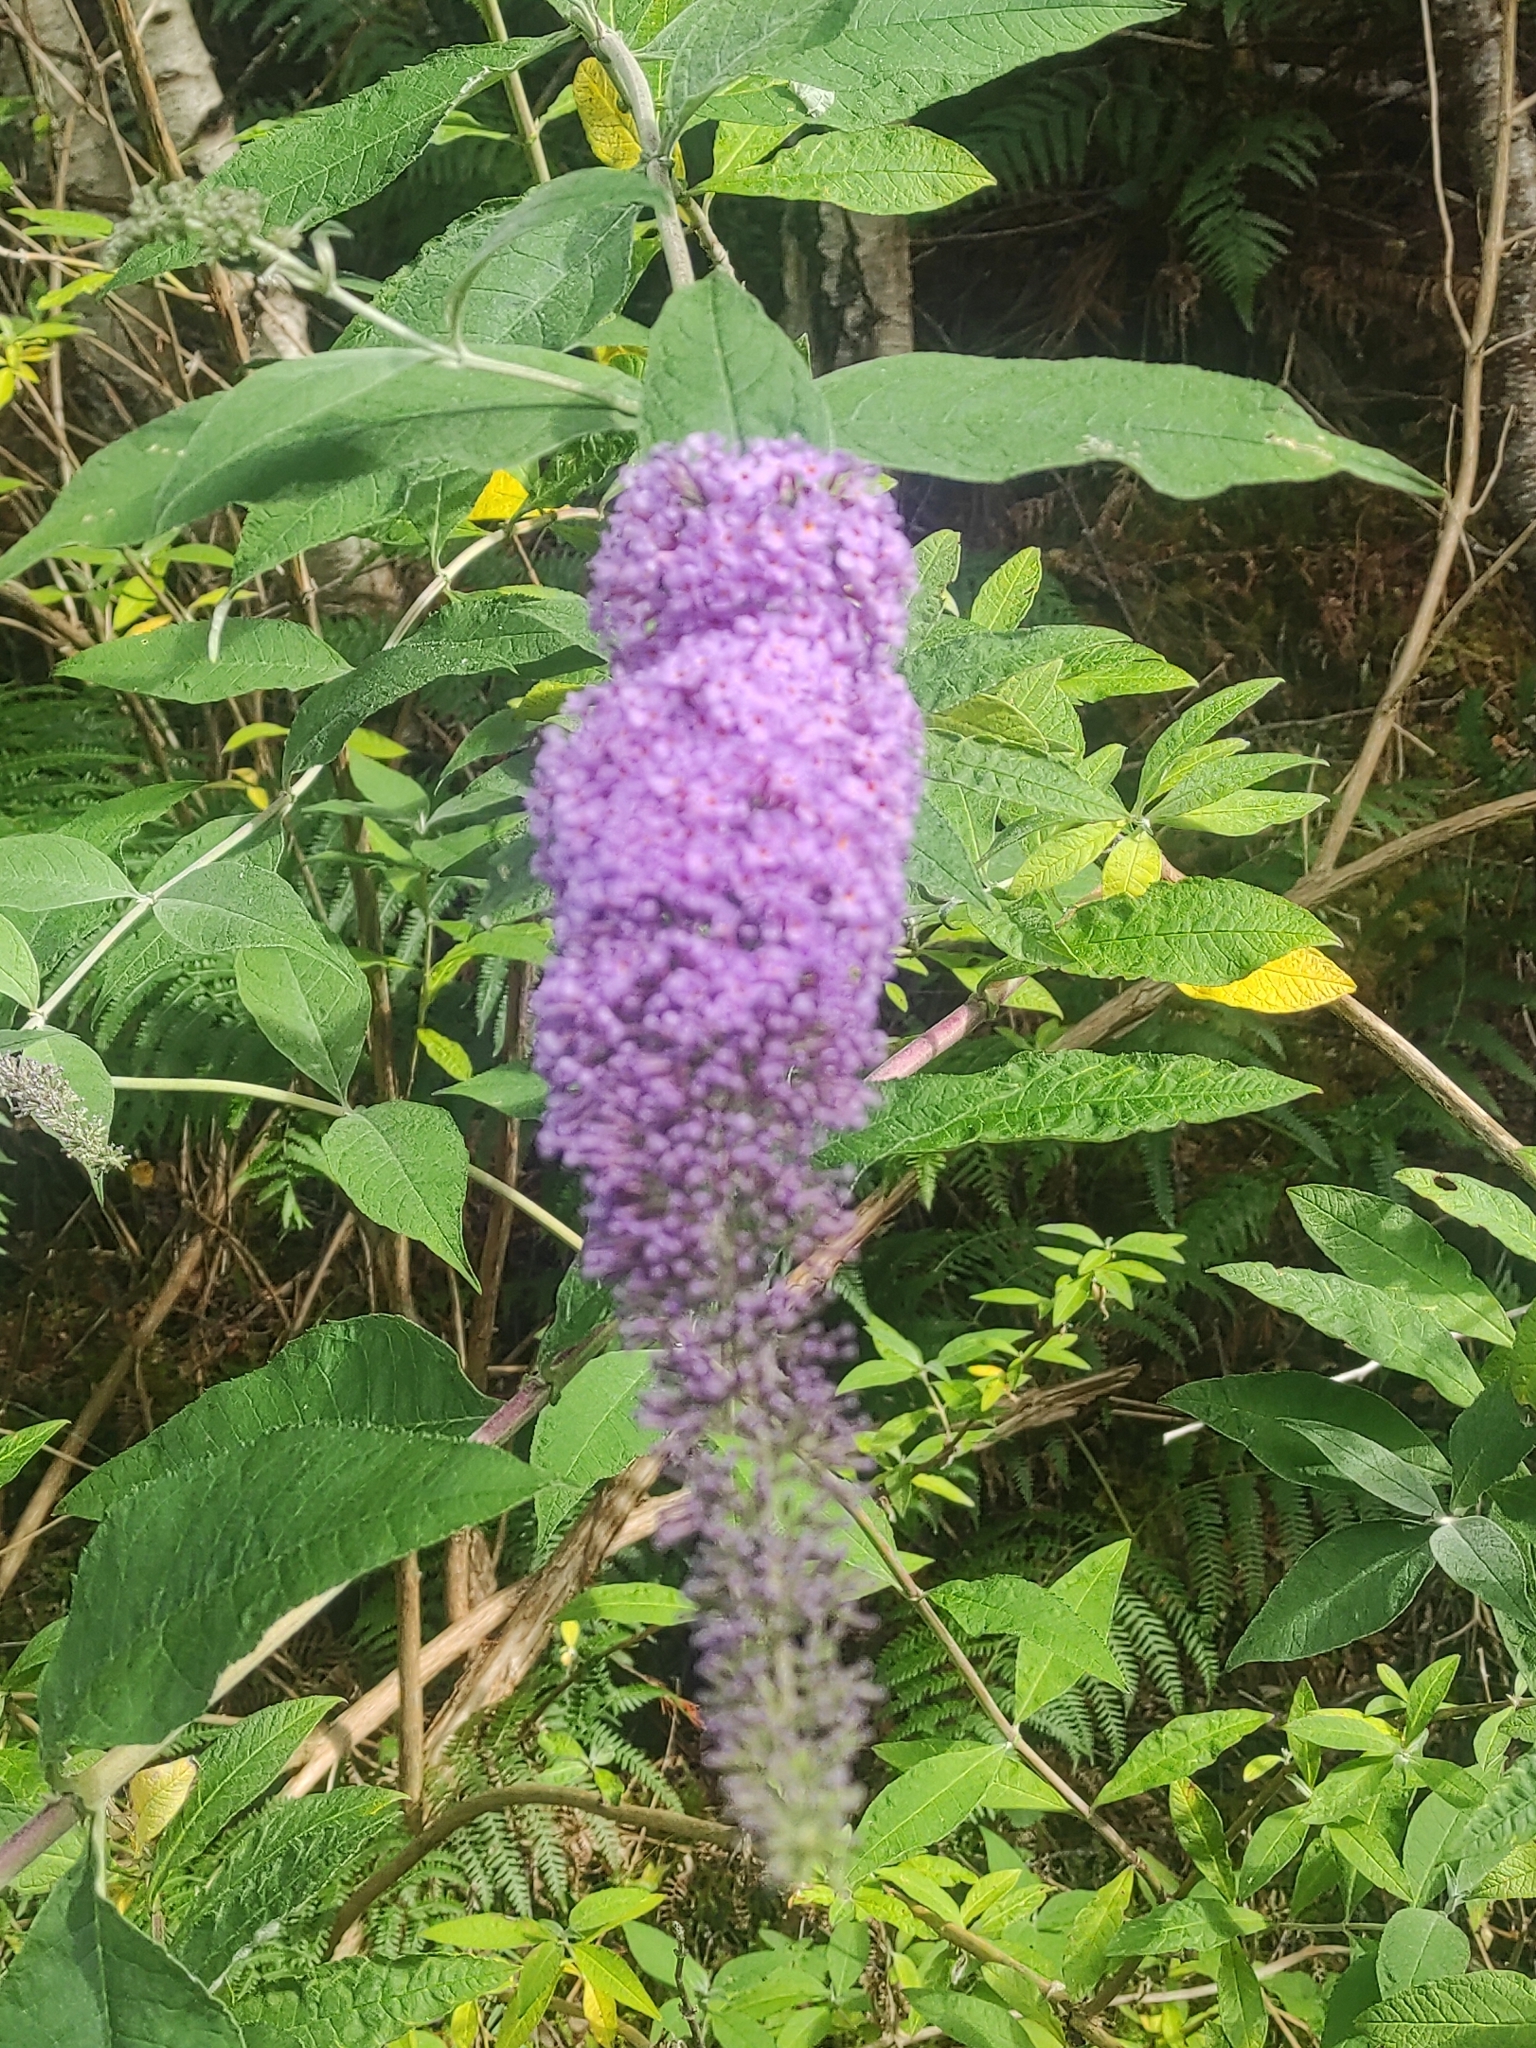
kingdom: Plantae
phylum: Tracheophyta
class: Magnoliopsida
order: Lamiales
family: Scrophulariaceae
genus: Buddleja
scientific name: Buddleja davidii
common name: Butterfly-bush
